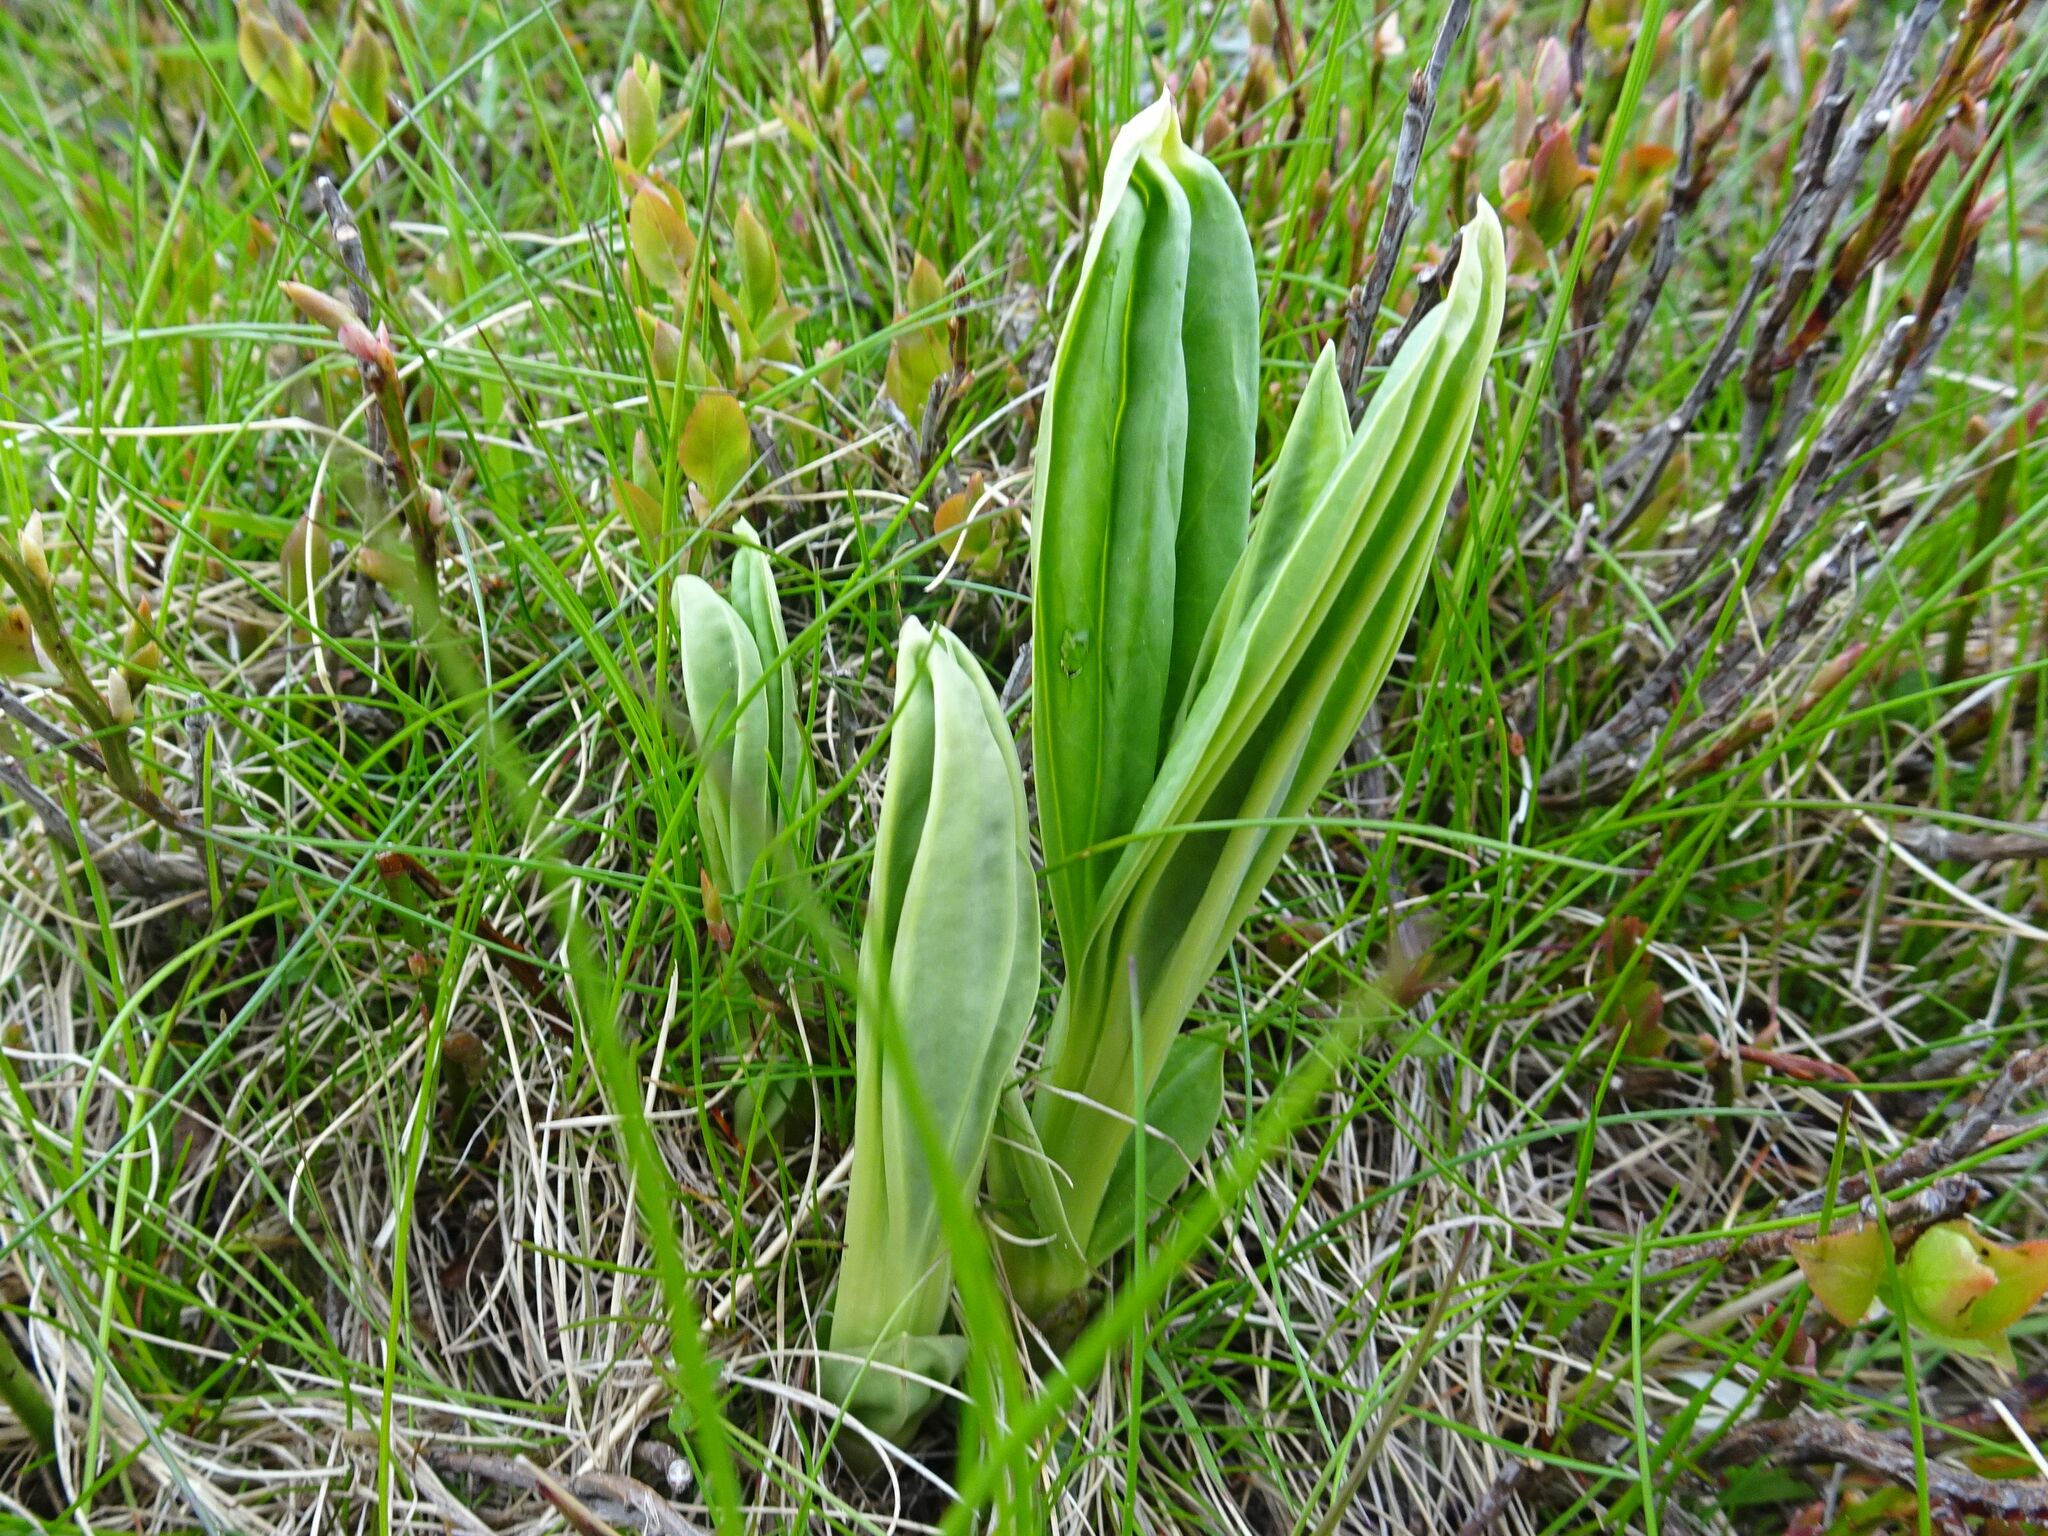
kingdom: Plantae
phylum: Tracheophyta
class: Magnoliopsida
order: Gentianales
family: Gentianaceae
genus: Gentiana
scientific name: Gentiana lutea
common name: Great yellow gentian
